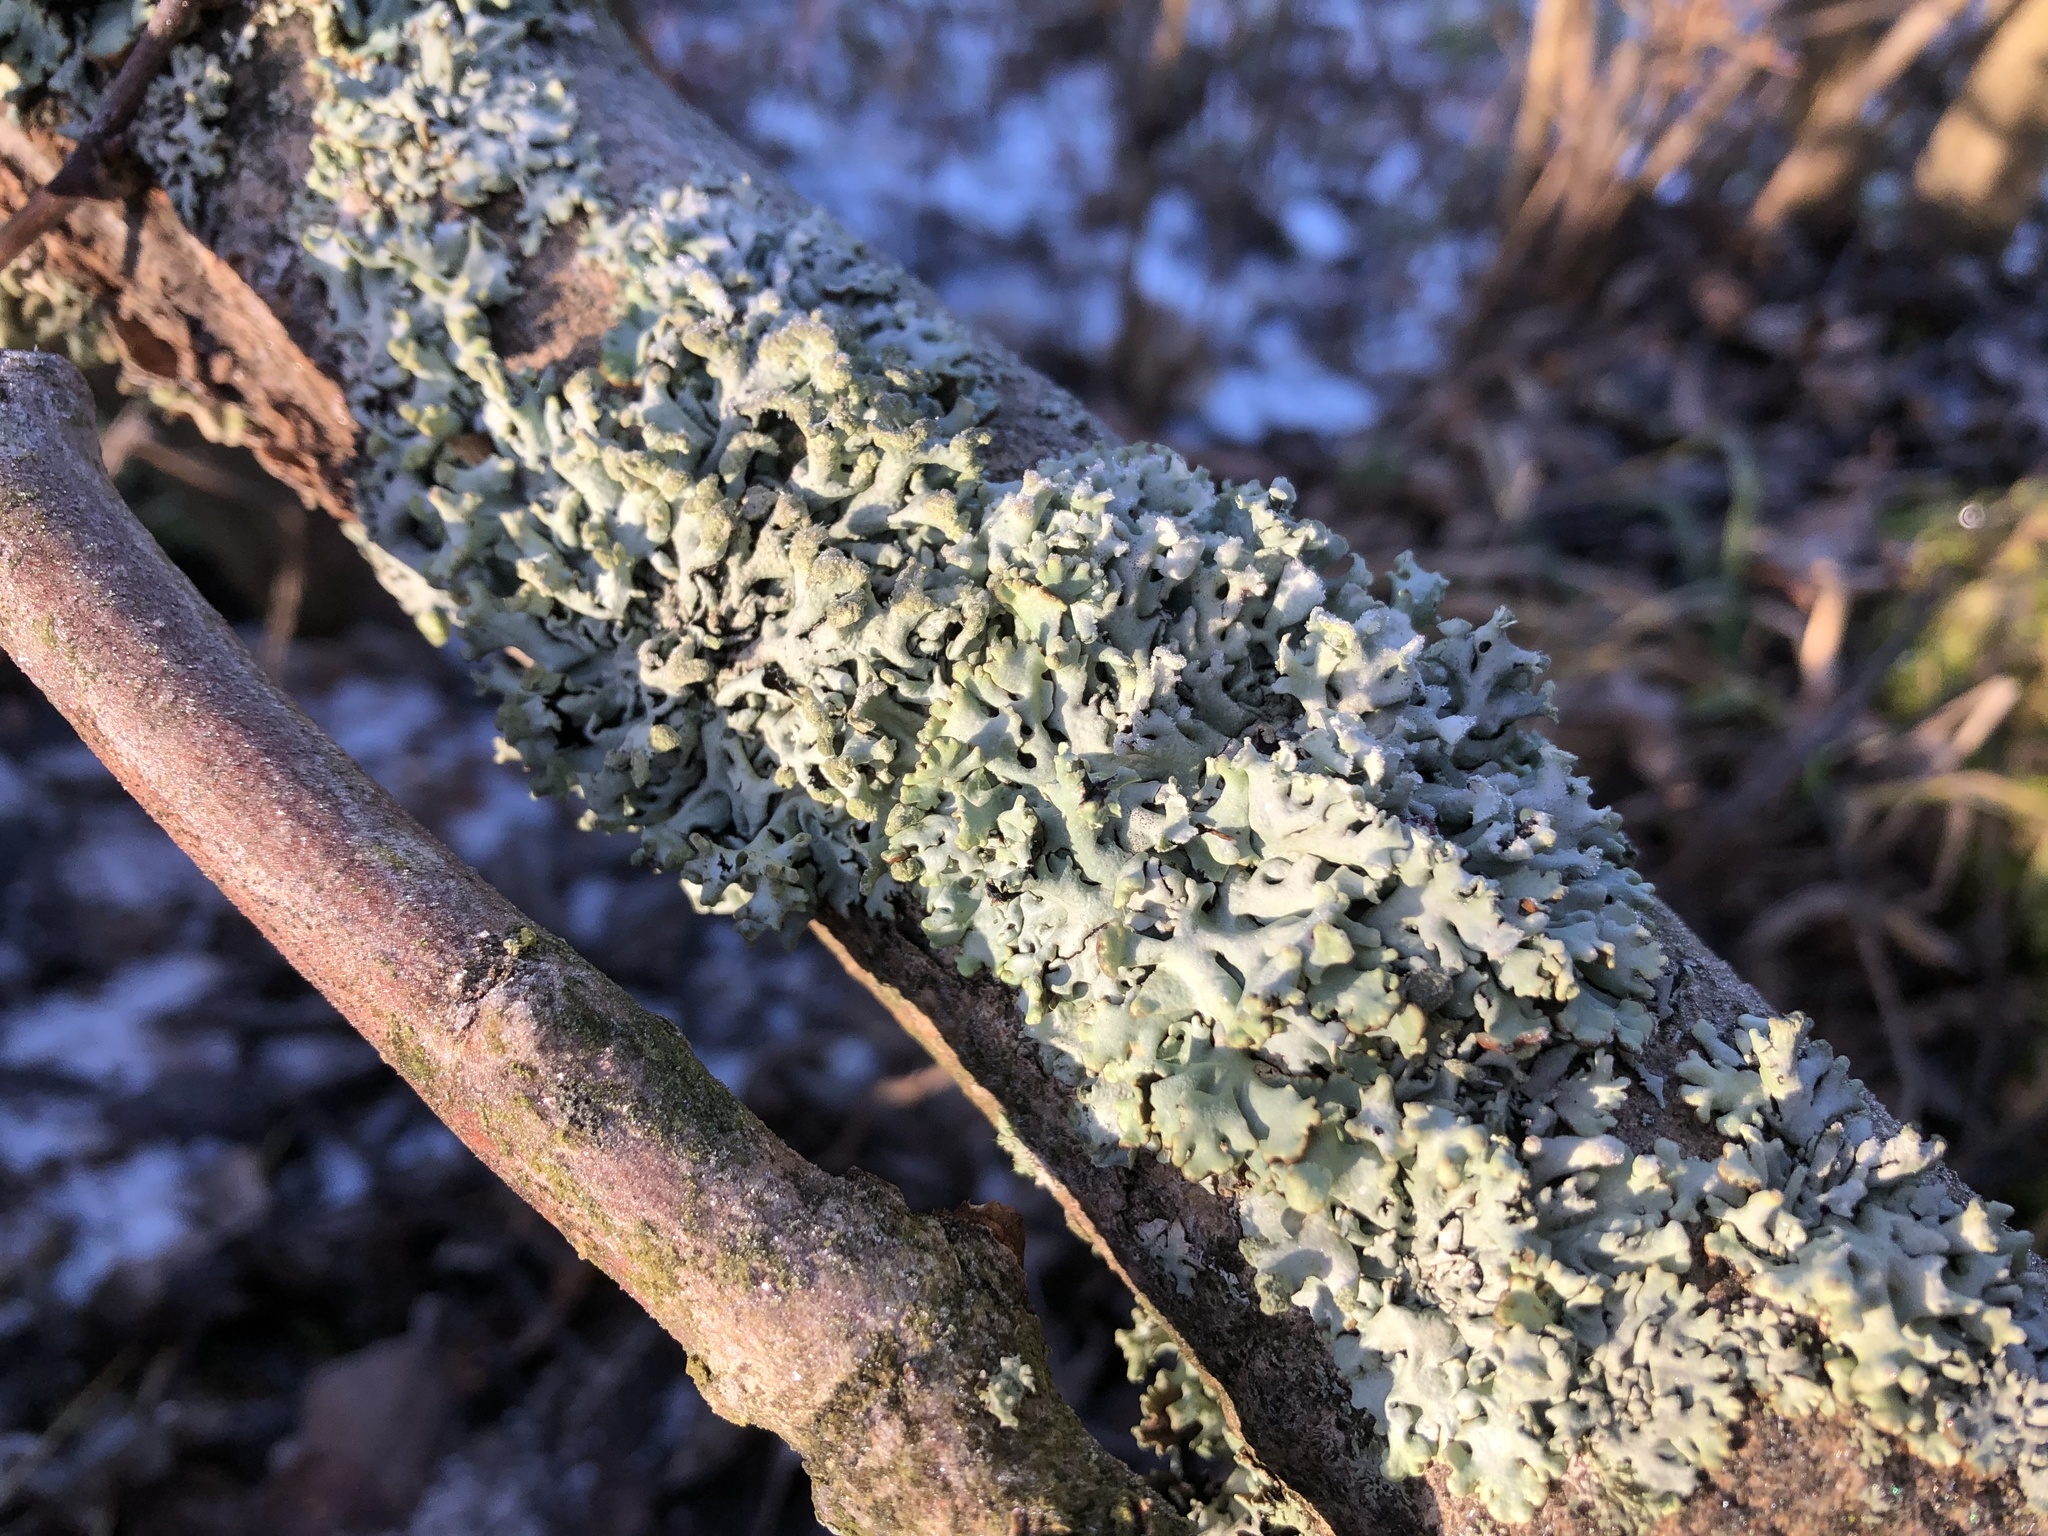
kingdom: Fungi
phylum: Ascomycota
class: Lecanoromycetes
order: Lecanorales
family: Parmeliaceae
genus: Hypogymnia
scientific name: Hypogymnia physodes
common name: Dark crottle
